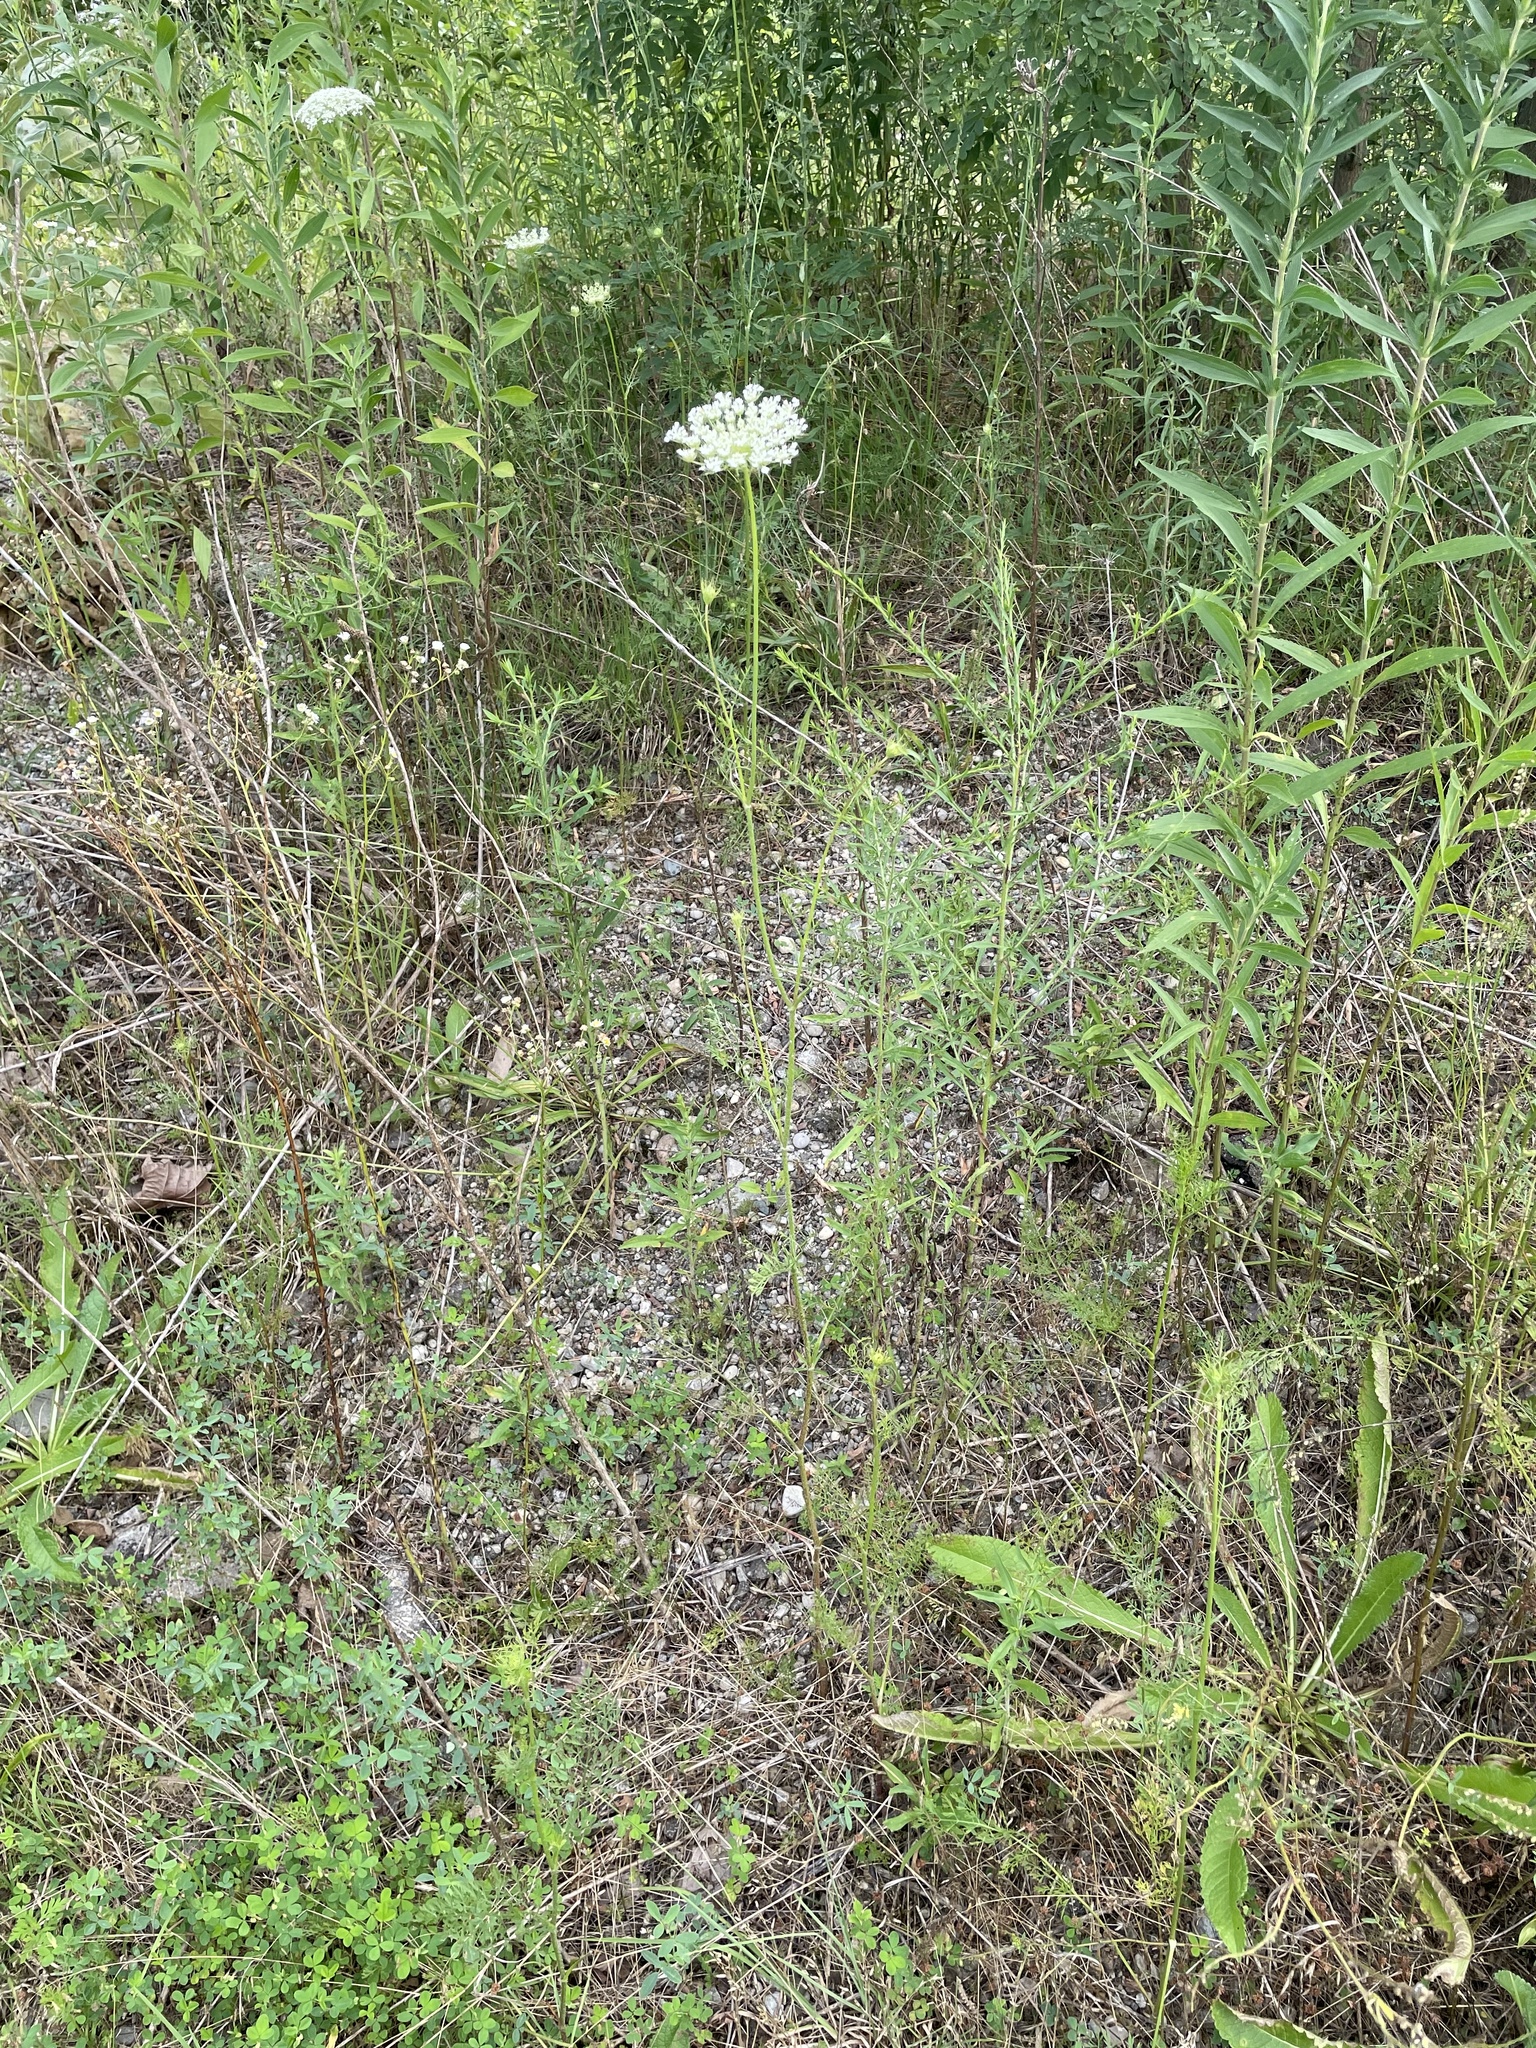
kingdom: Plantae
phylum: Tracheophyta
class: Magnoliopsida
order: Apiales
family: Apiaceae
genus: Daucus
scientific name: Daucus carota
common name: Wild carrot
